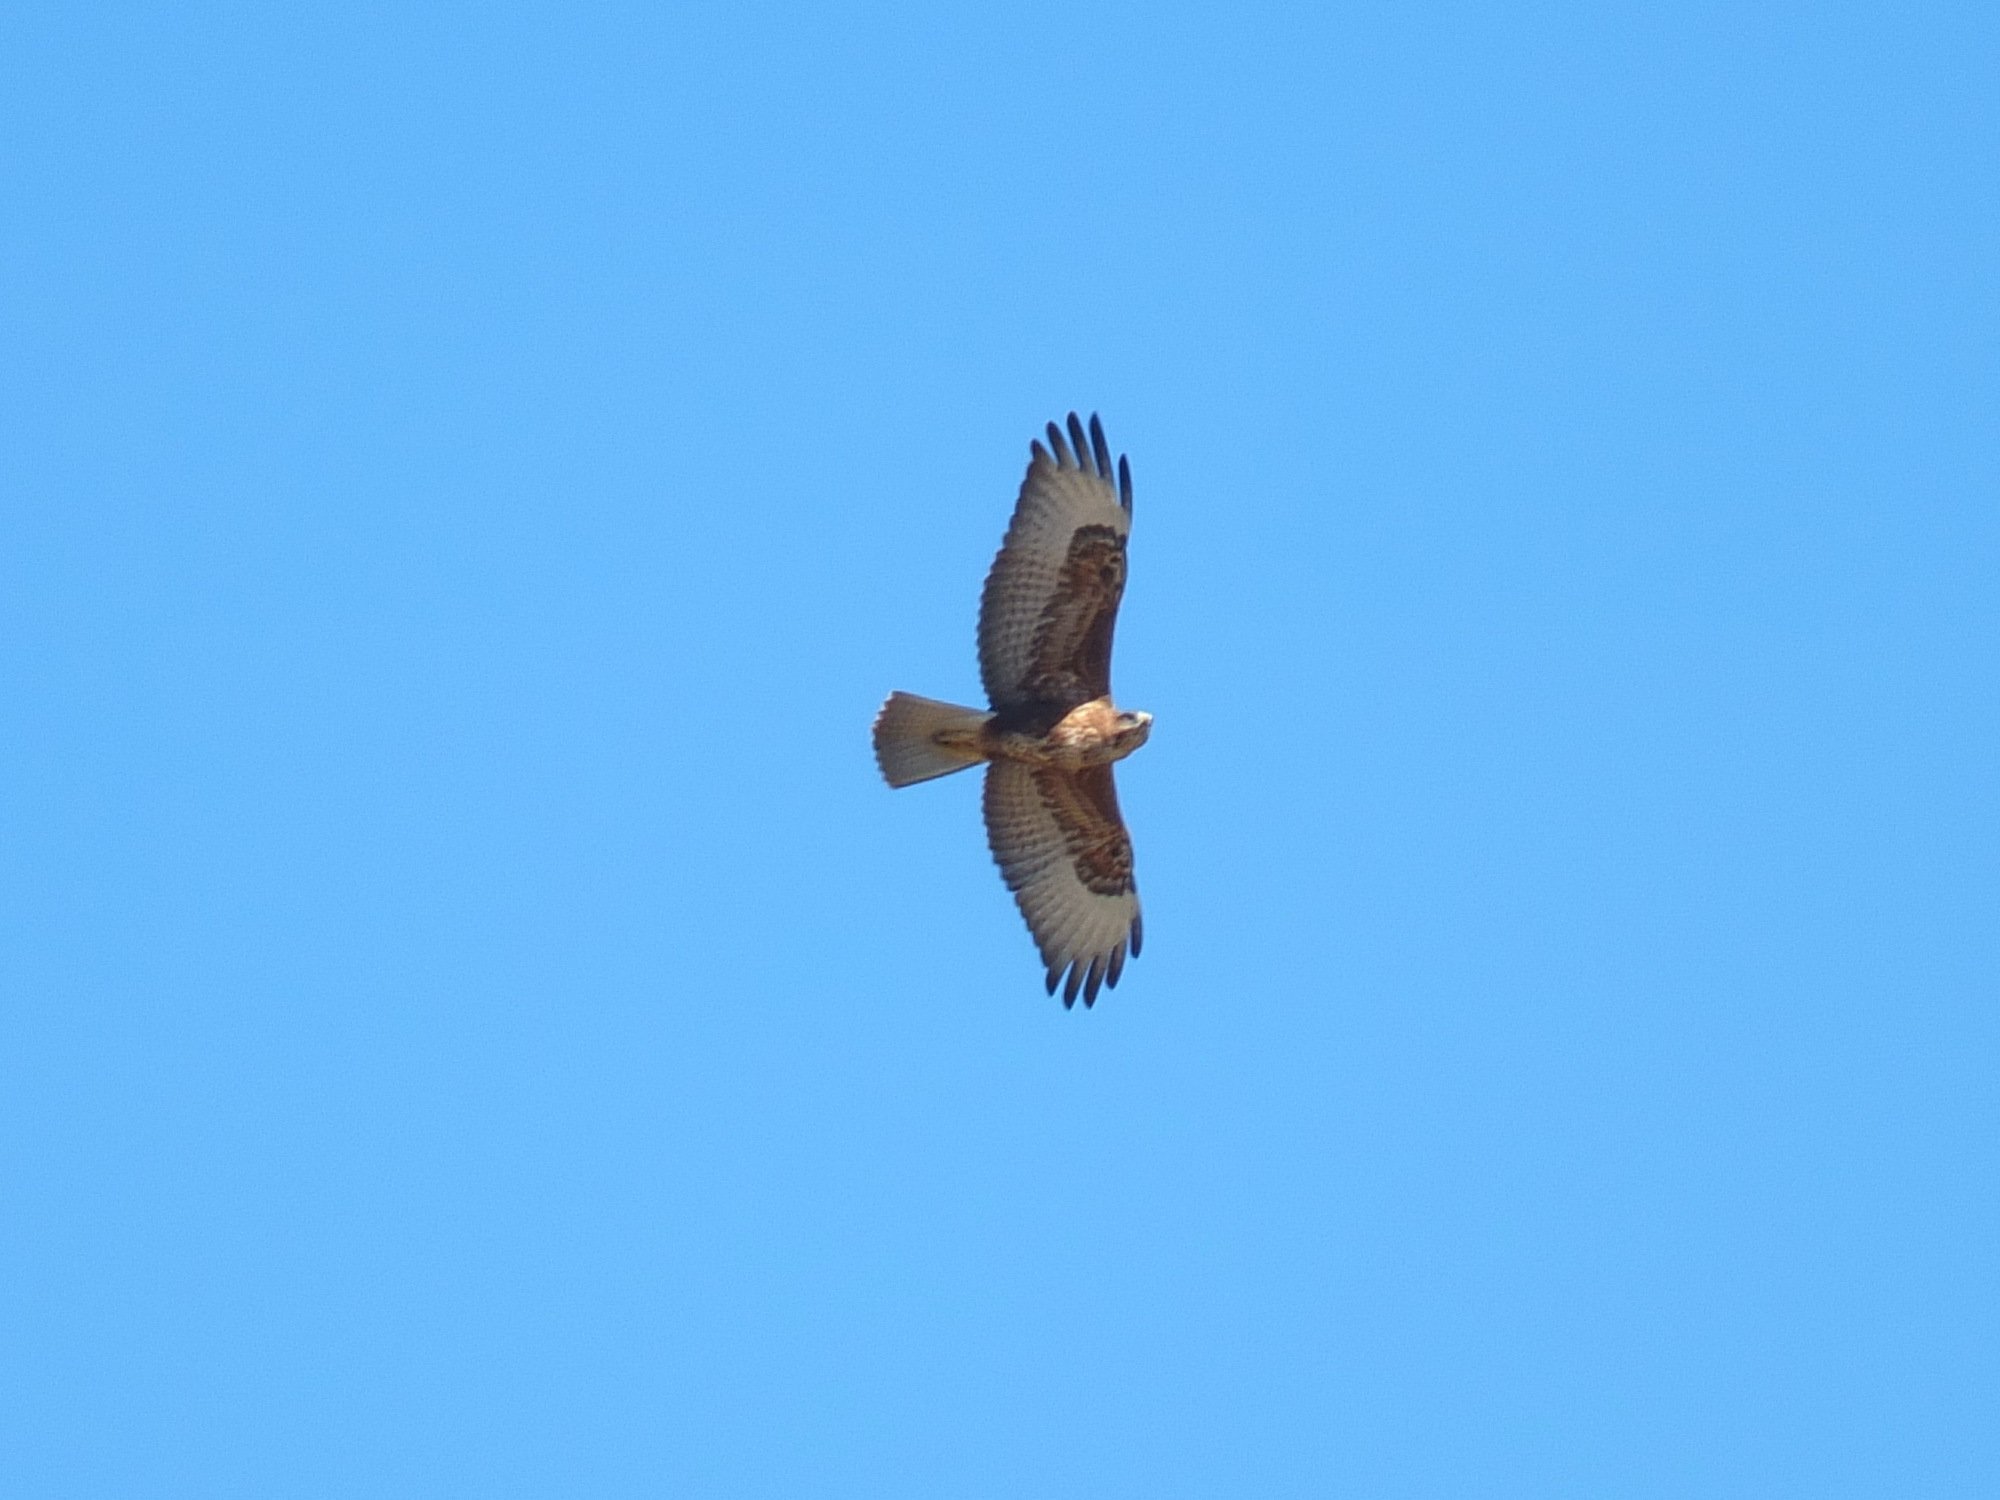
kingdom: Animalia
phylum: Chordata
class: Aves
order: Accipitriformes
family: Accipitridae
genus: Buteo
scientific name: Buteo rufinus
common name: Long-legged buzzard
